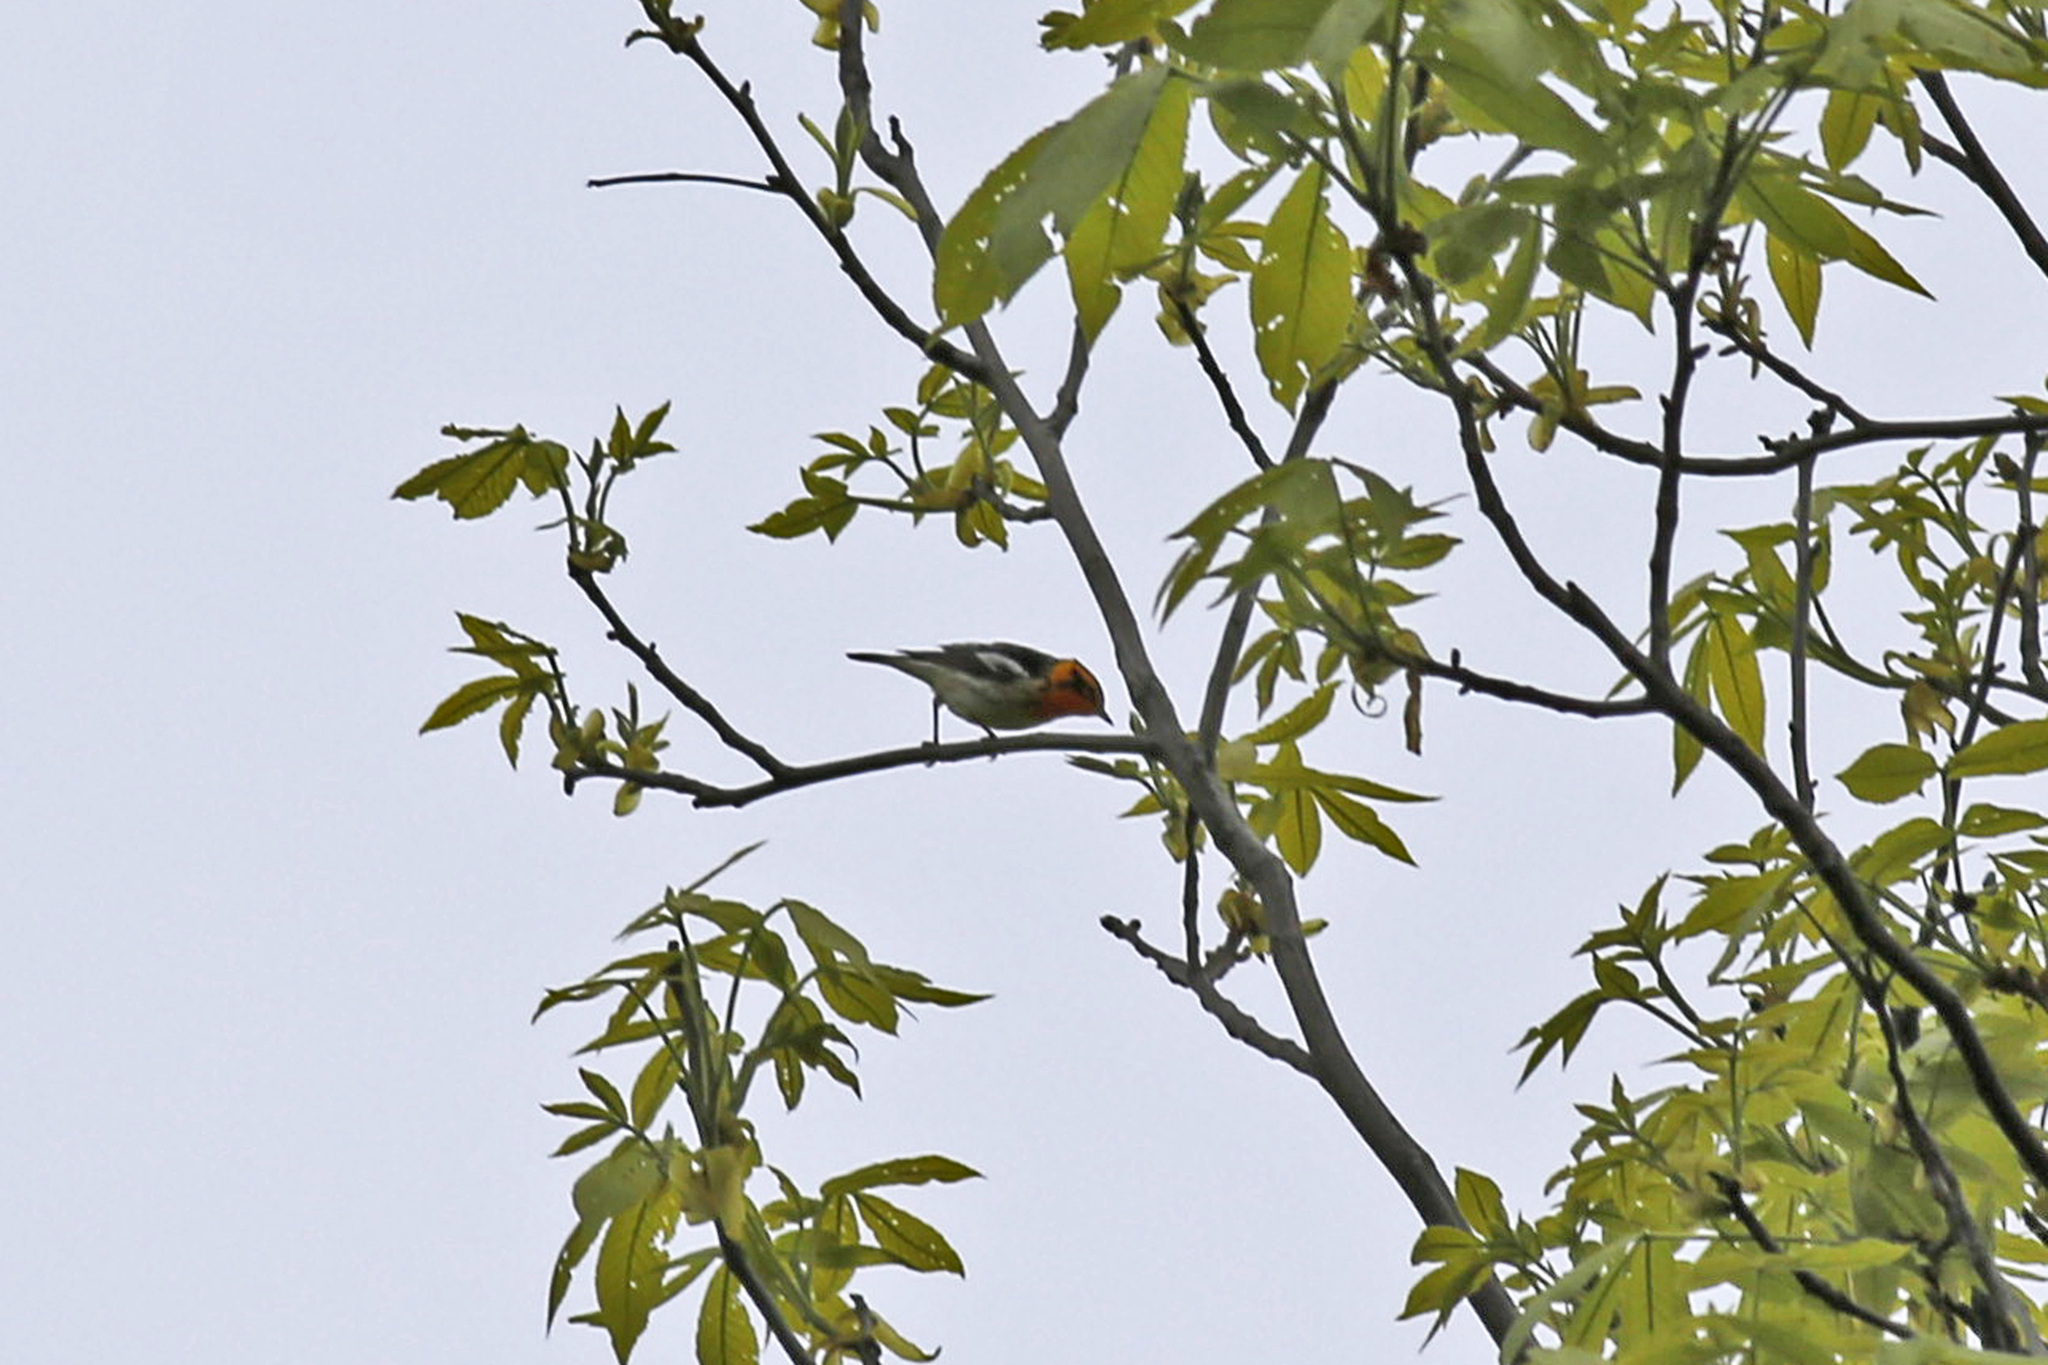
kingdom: Animalia
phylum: Chordata
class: Aves
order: Passeriformes
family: Parulidae
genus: Setophaga
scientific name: Setophaga fusca
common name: Blackburnian warbler
